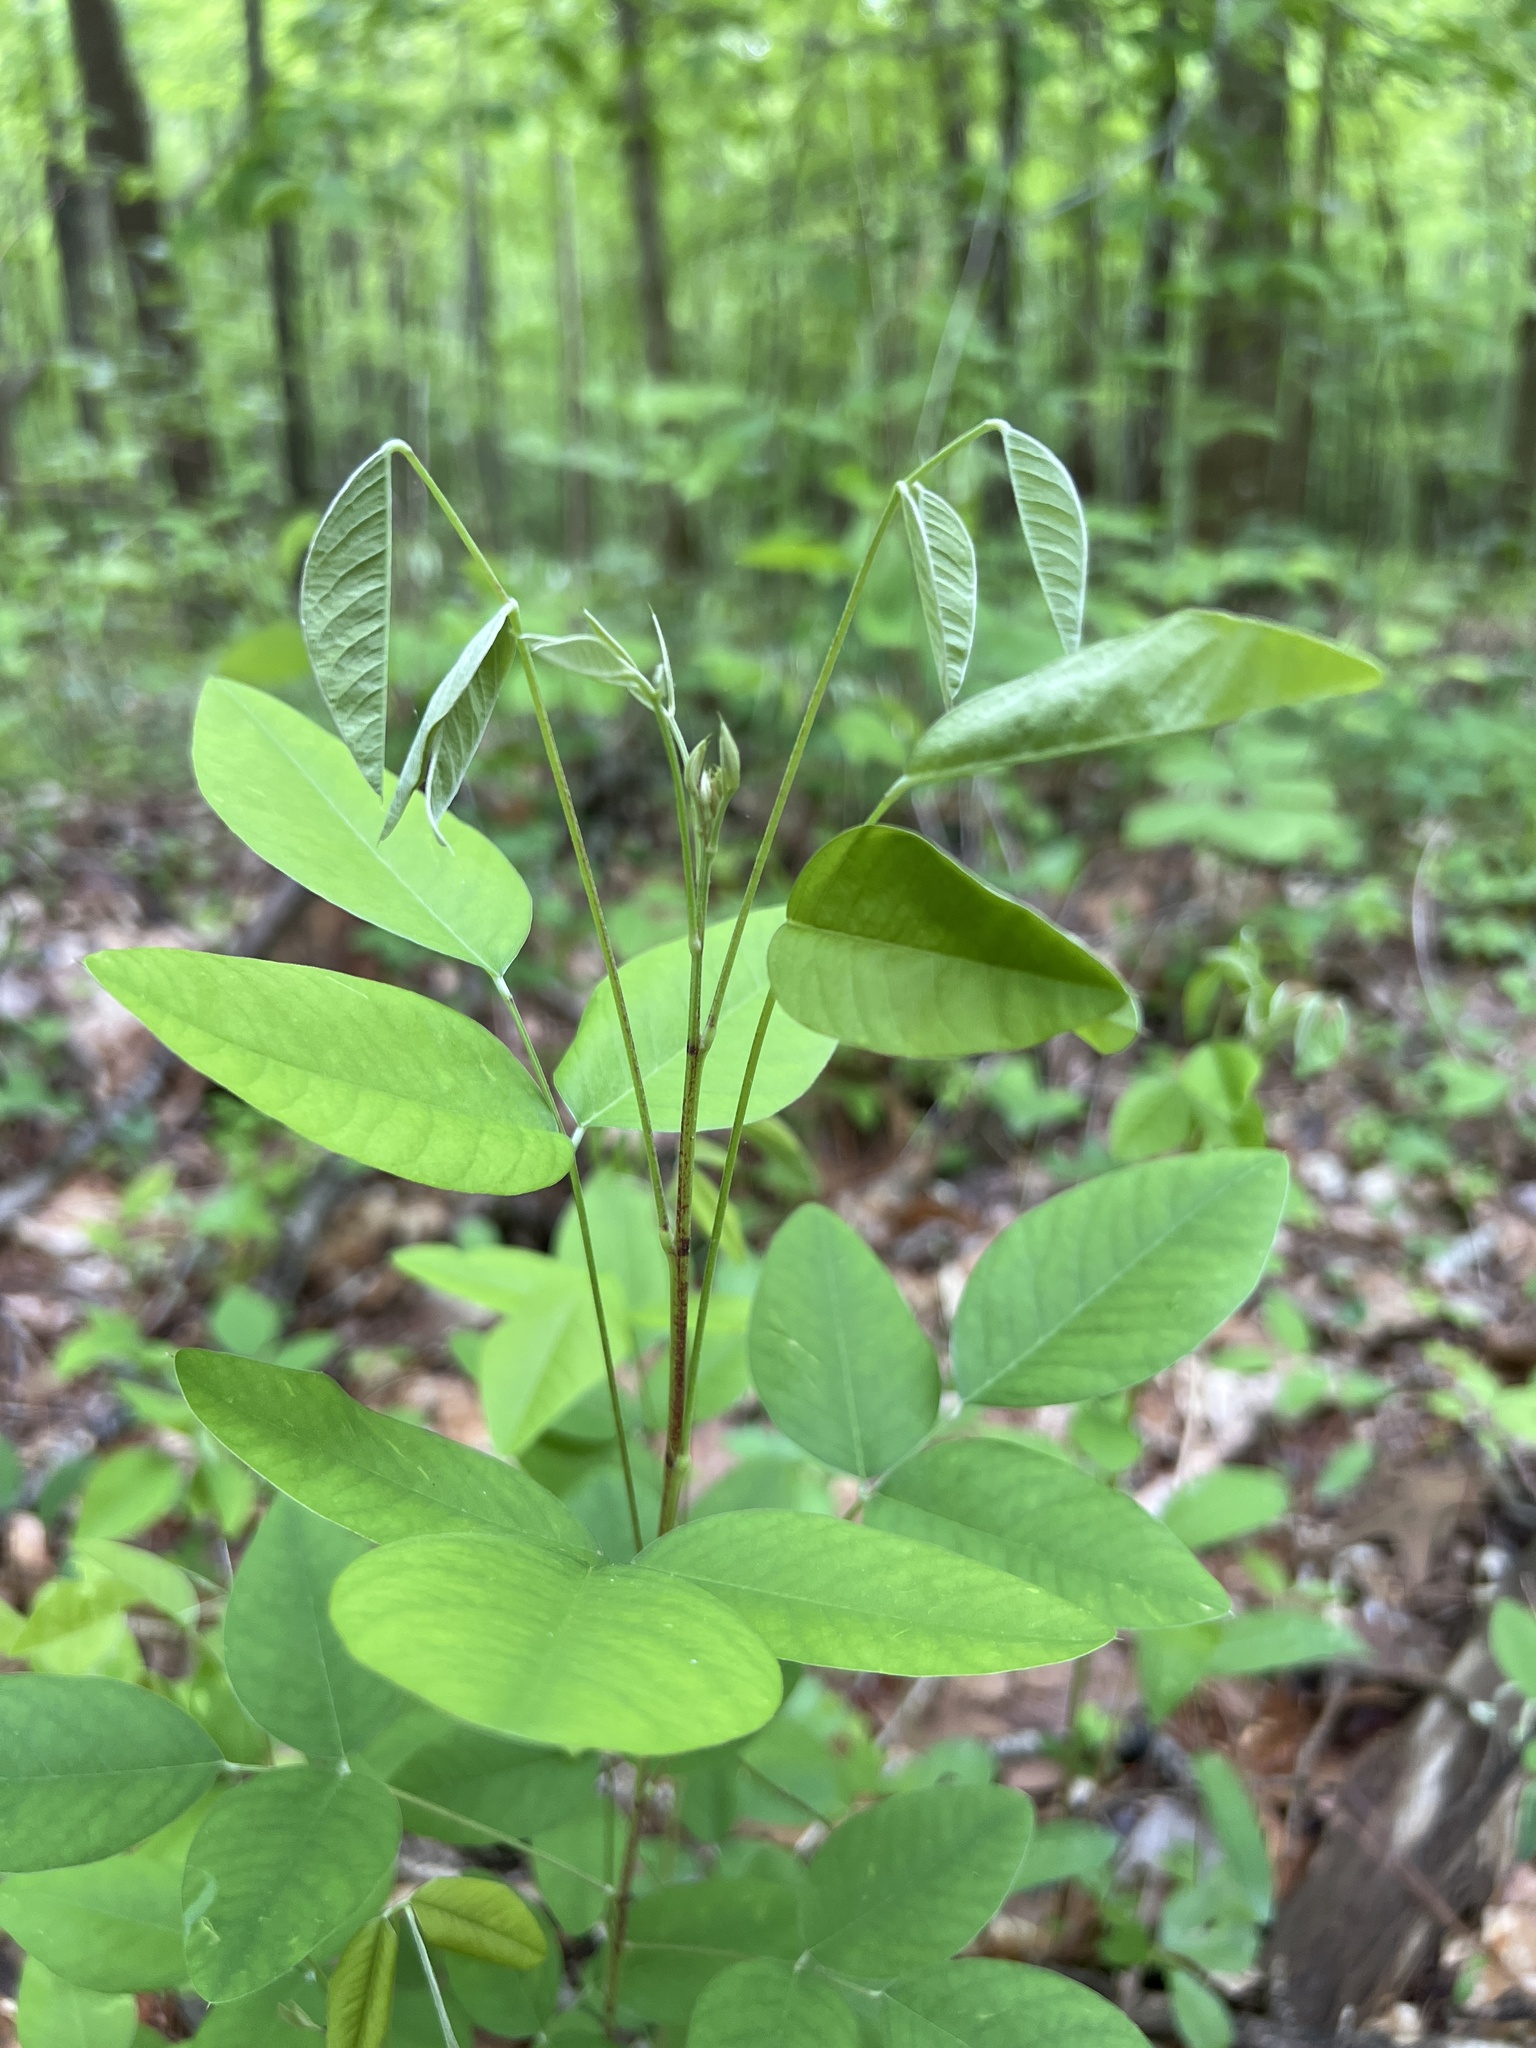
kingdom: Plantae
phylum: Tracheophyta
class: Magnoliopsida
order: Fabales
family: Fabaceae
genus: Lespedeza
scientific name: Lespedeza bicolor
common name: Shrub lespedeza
